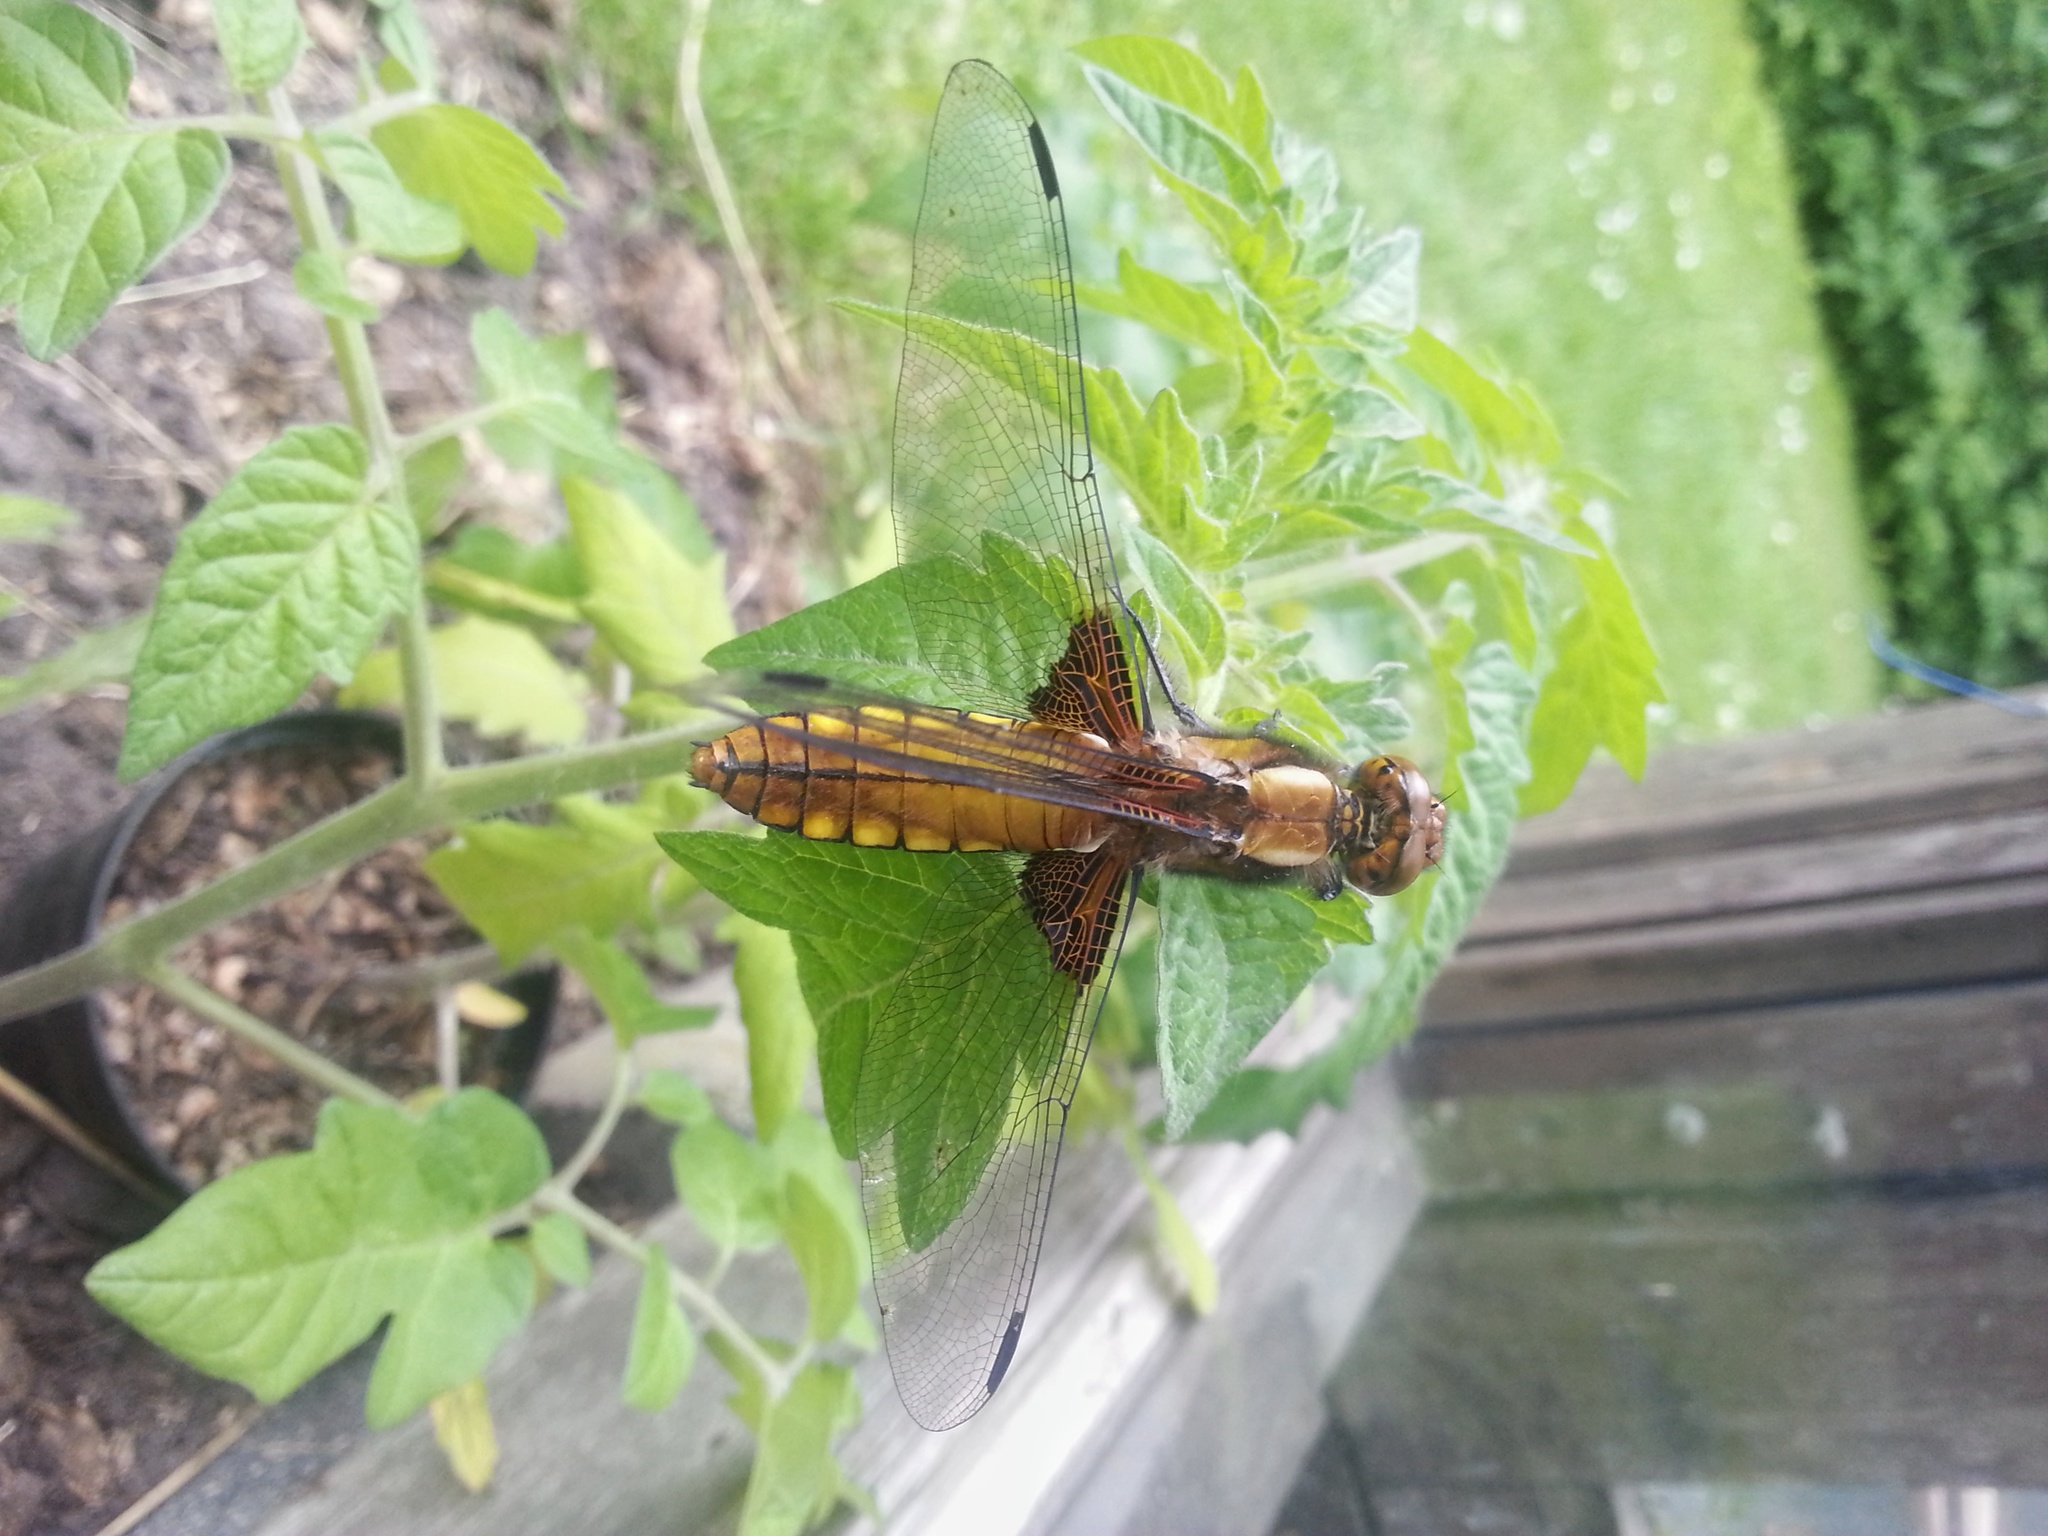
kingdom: Animalia
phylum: Arthropoda
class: Insecta
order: Odonata
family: Libellulidae
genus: Libellula
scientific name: Libellula depressa
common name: Broad-bodied chaser
